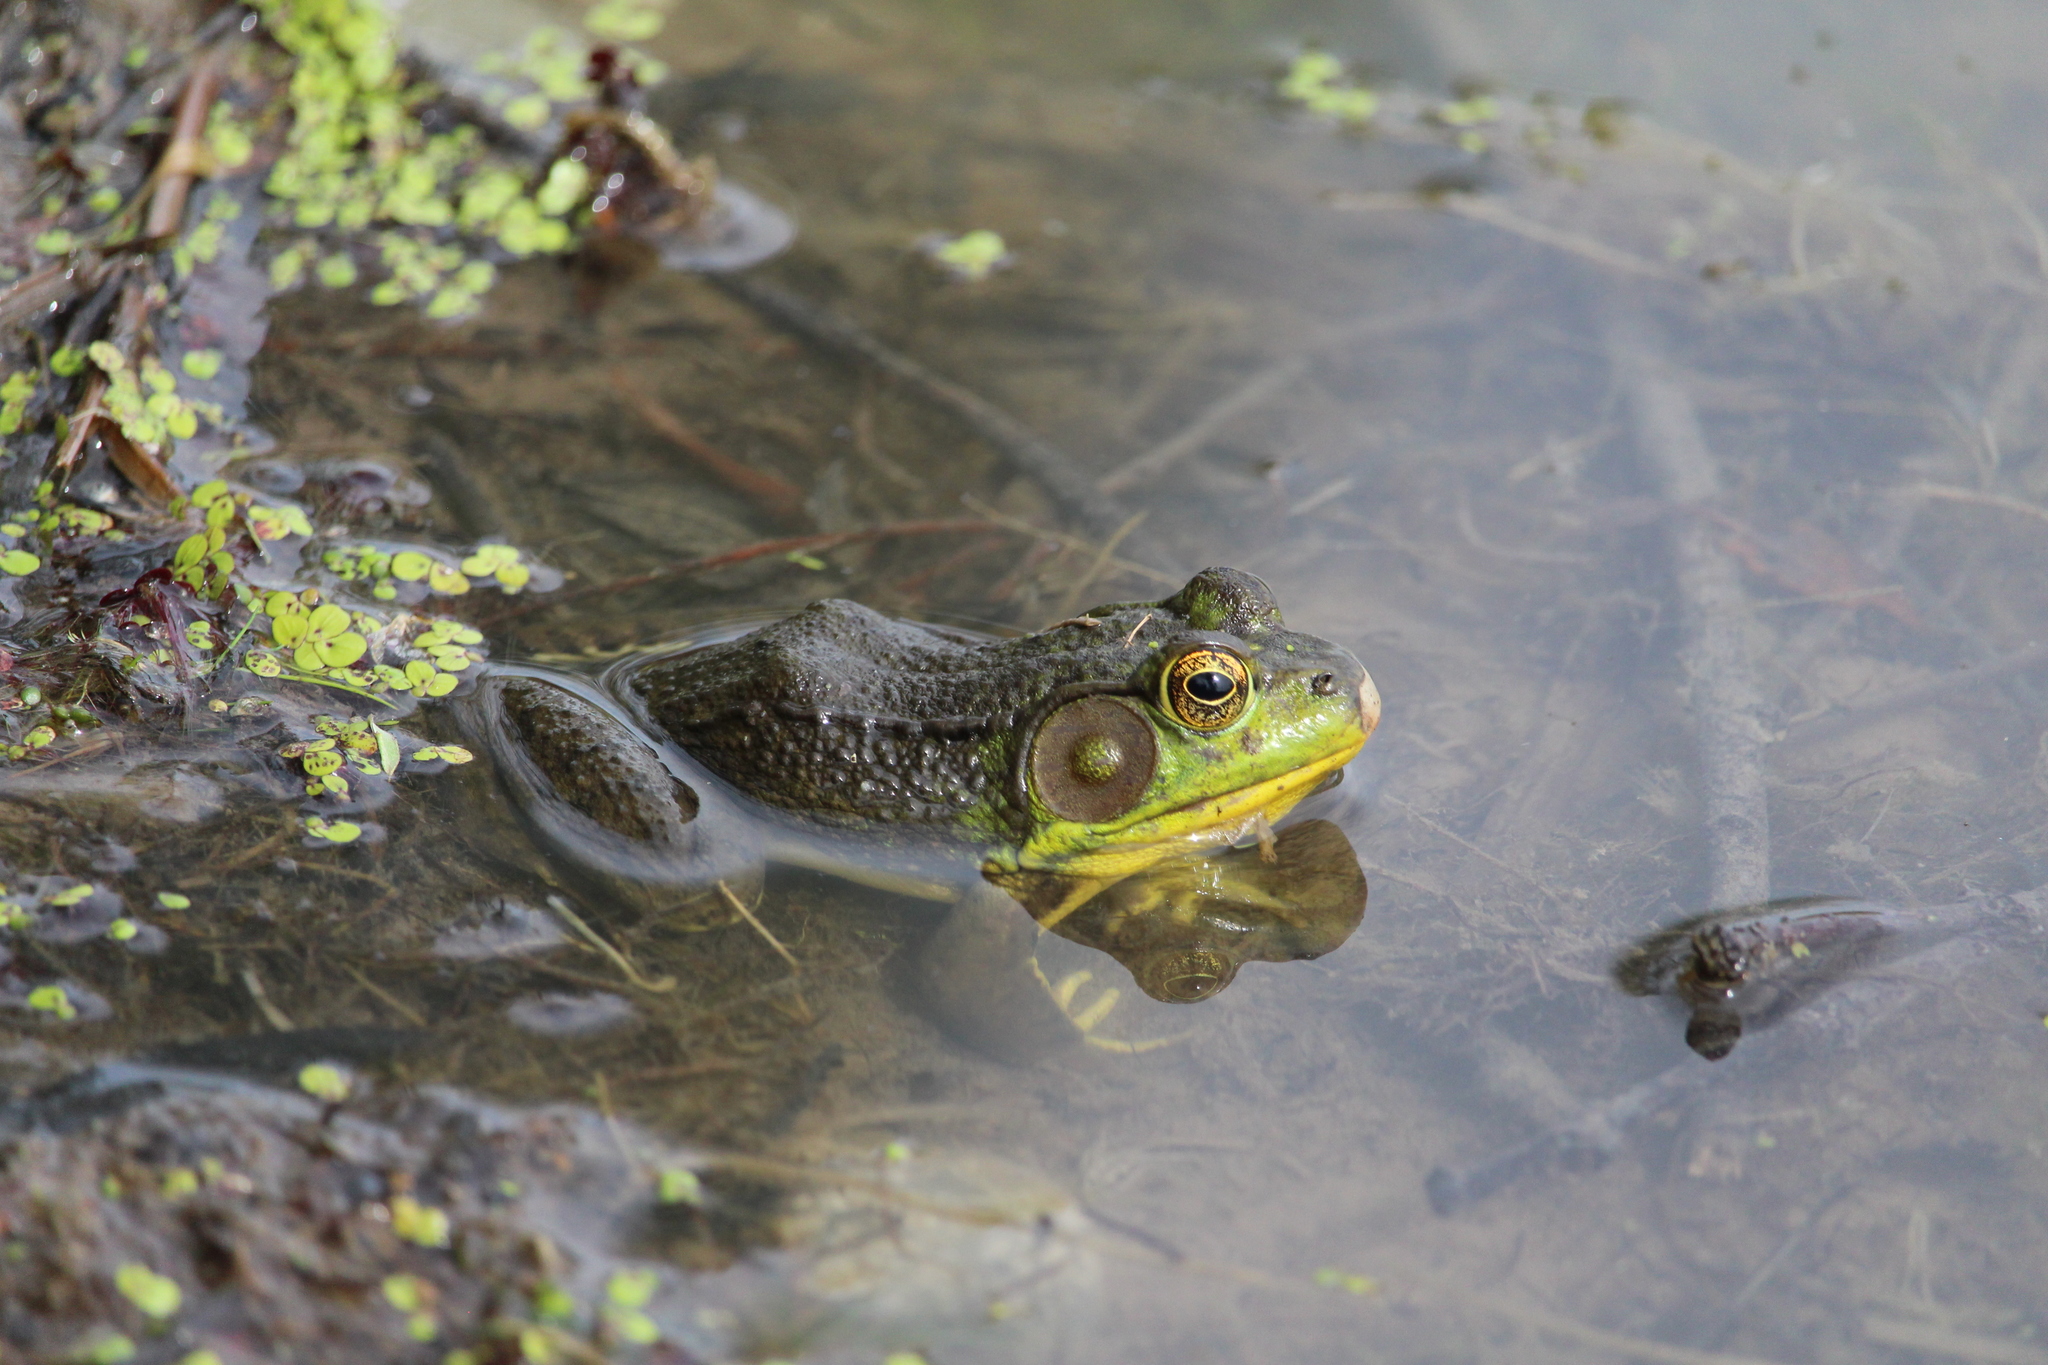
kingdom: Animalia
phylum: Chordata
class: Amphibia
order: Anura
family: Ranidae
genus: Lithobates
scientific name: Lithobates clamitans
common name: Green frog
